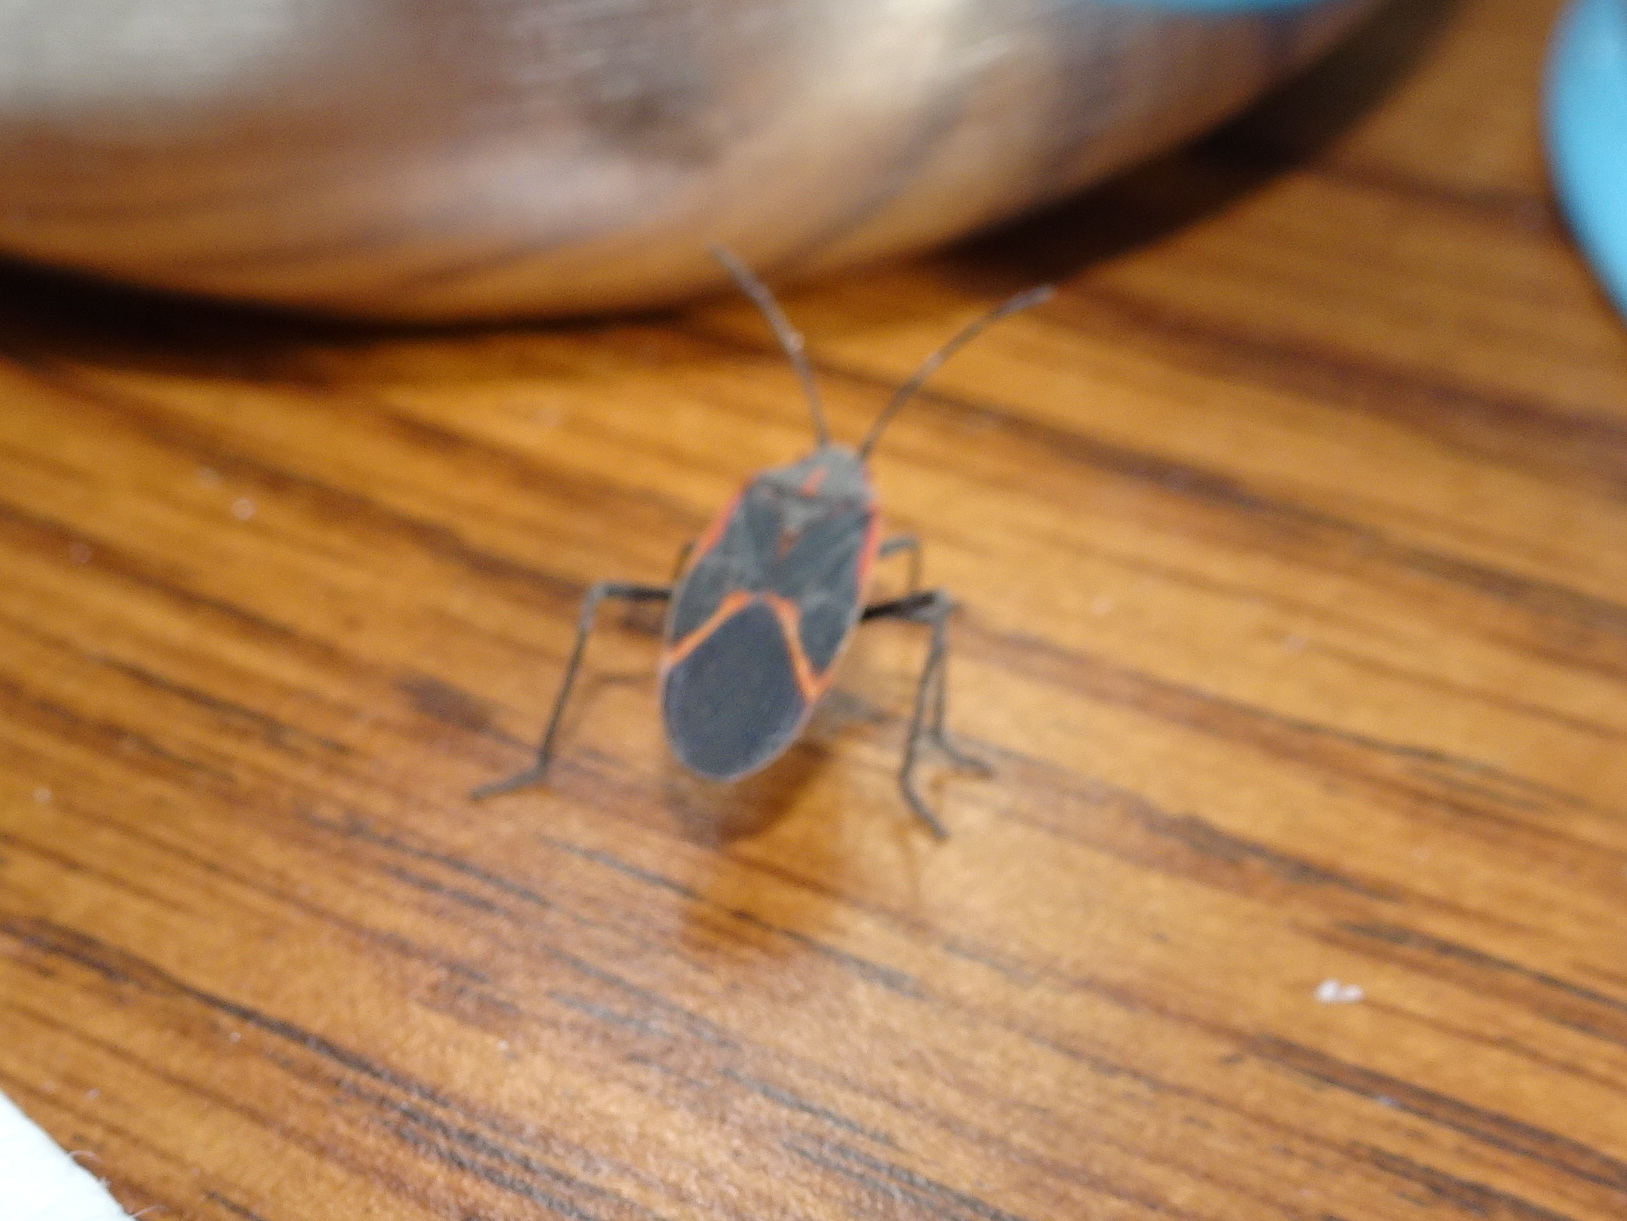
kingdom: Animalia
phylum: Arthropoda
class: Insecta
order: Hemiptera
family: Rhopalidae
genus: Boisea
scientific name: Boisea trivittata
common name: Boxelder bug
